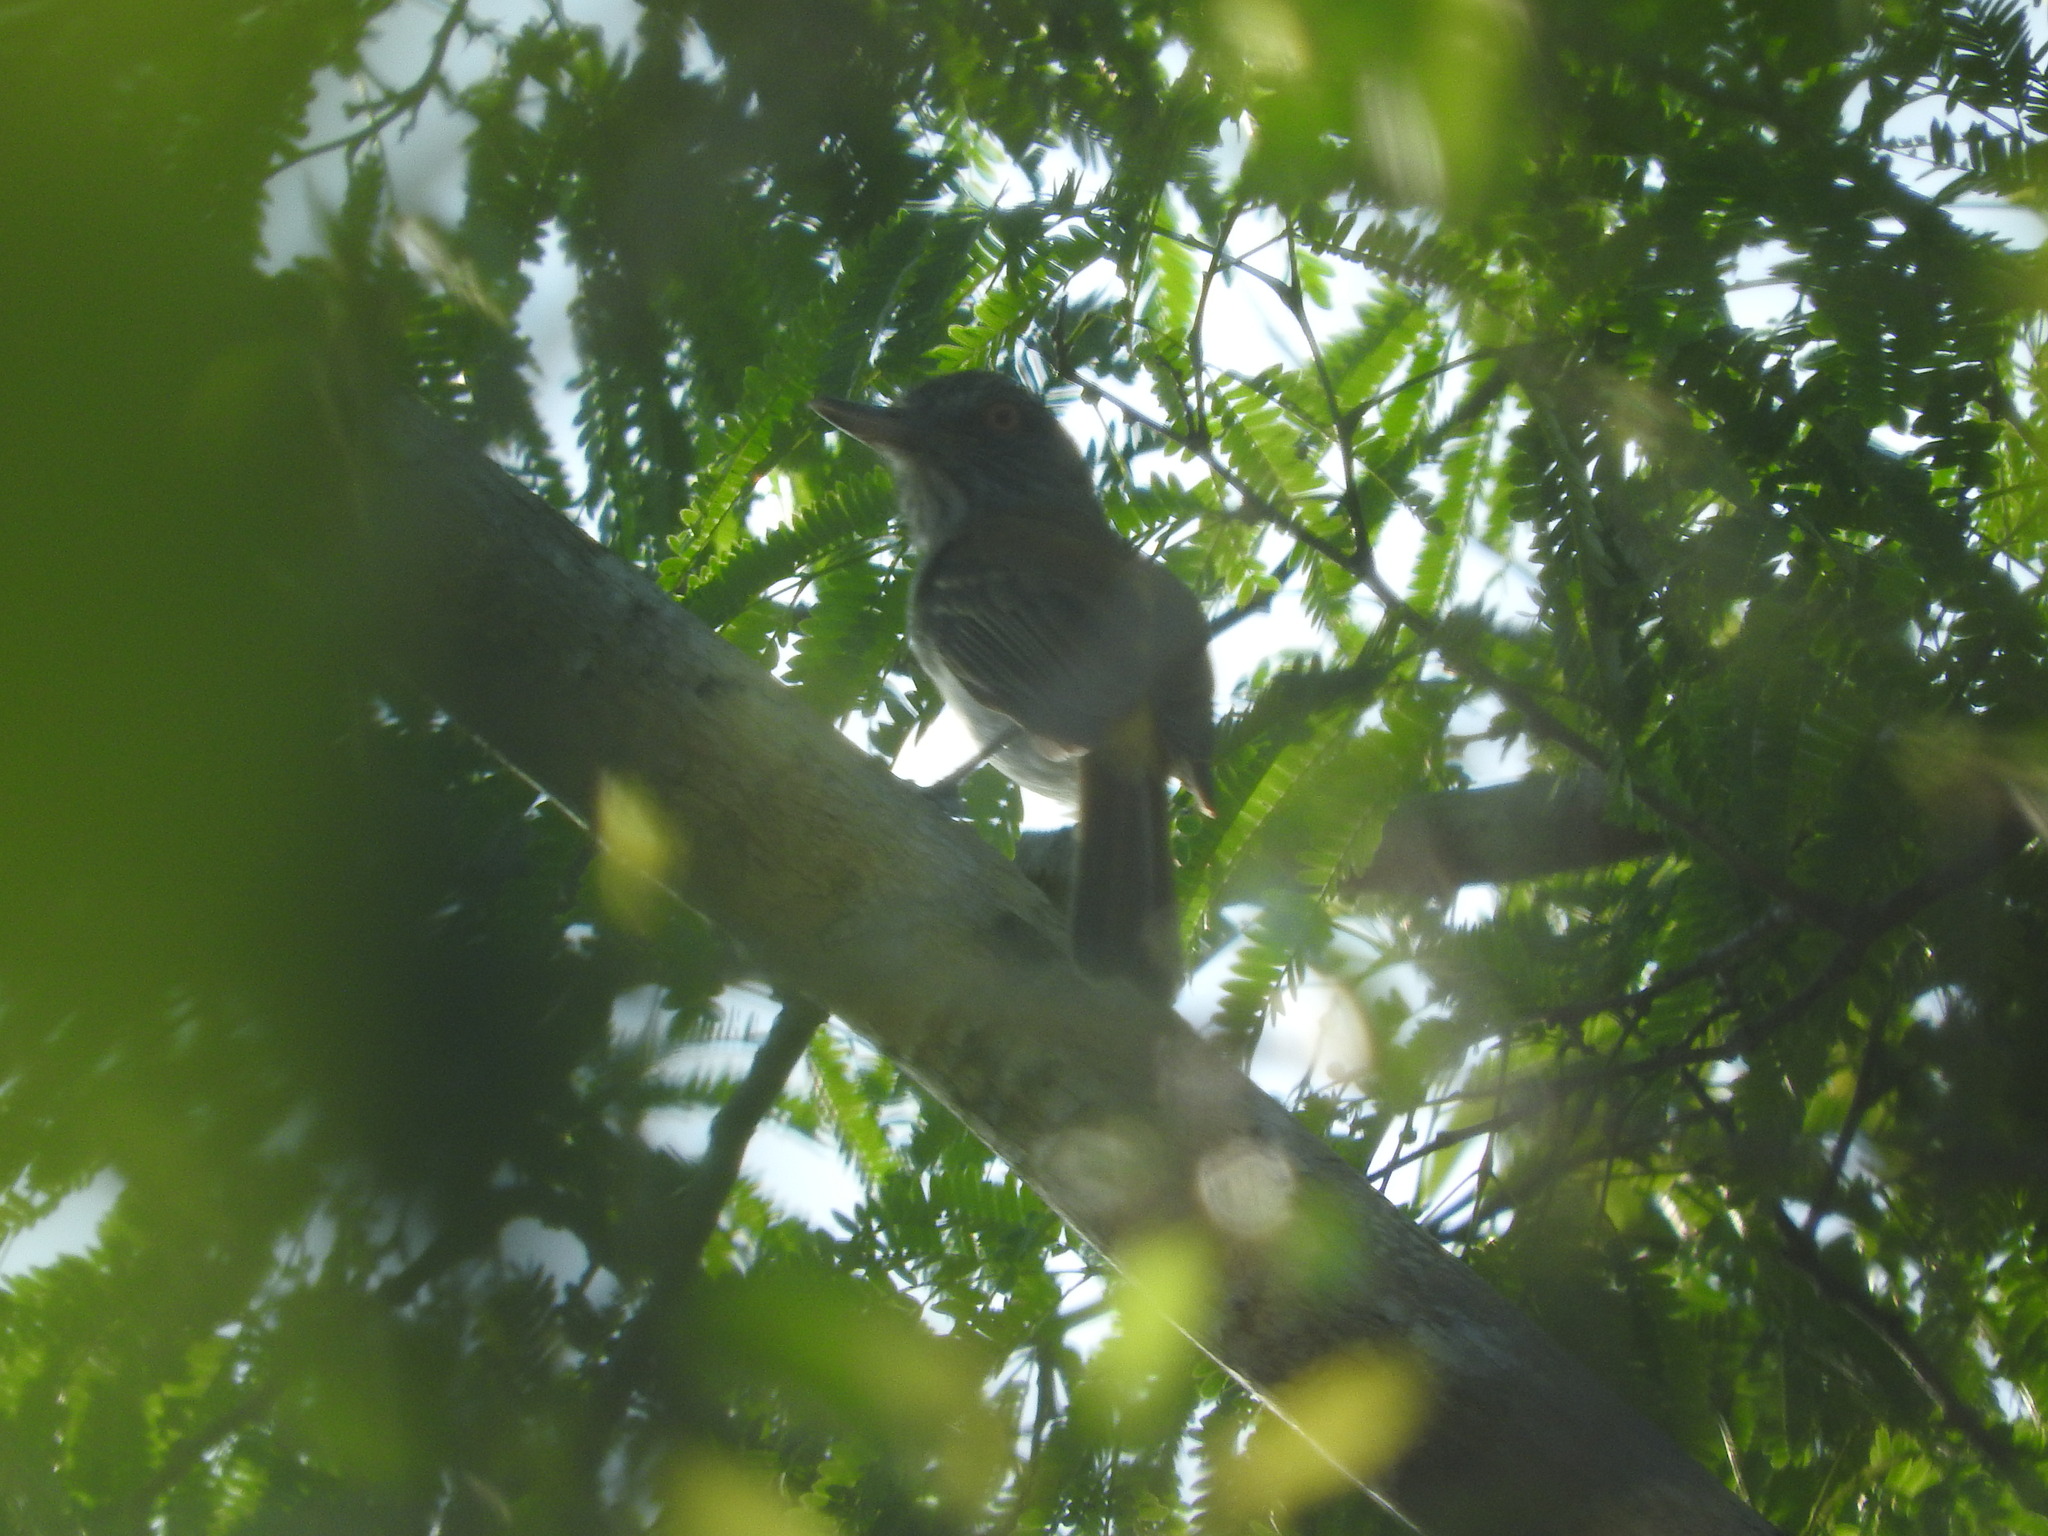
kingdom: Animalia
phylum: Chordata
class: Aves
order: Passeriformes
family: Tyrannidae
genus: Attila
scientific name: Attila spadiceus
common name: Bright-rumped attila
